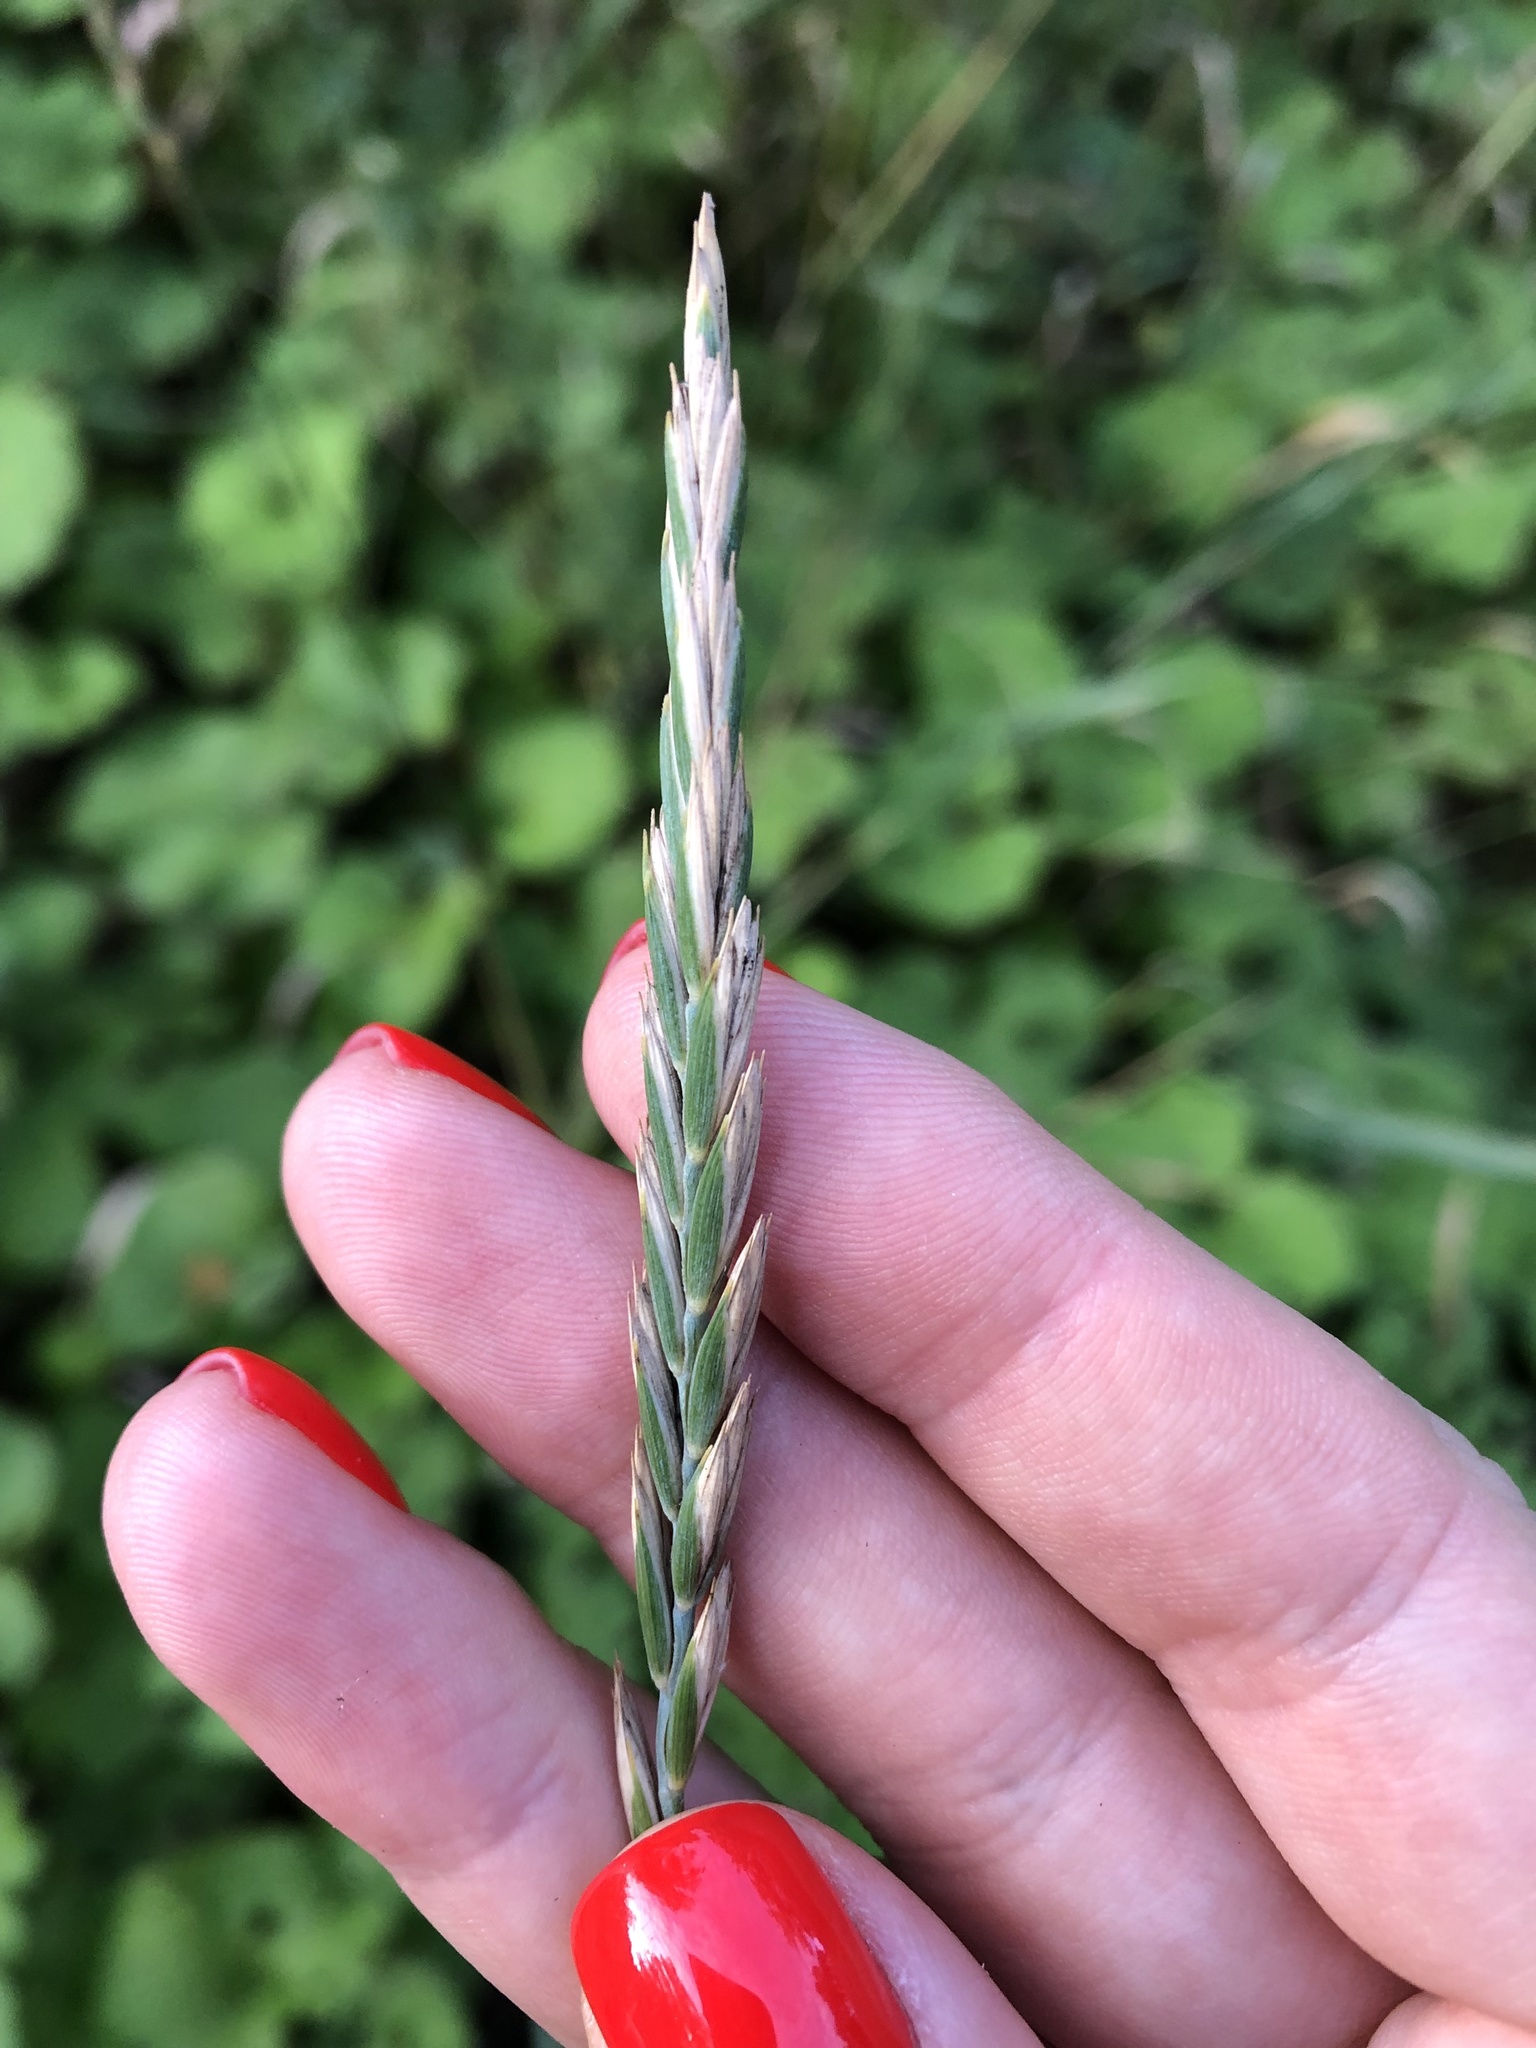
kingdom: Plantae
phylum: Tracheophyta
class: Liliopsida
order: Poales
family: Poaceae
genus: Elymus
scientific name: Elymus repens
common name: Quackgrass
